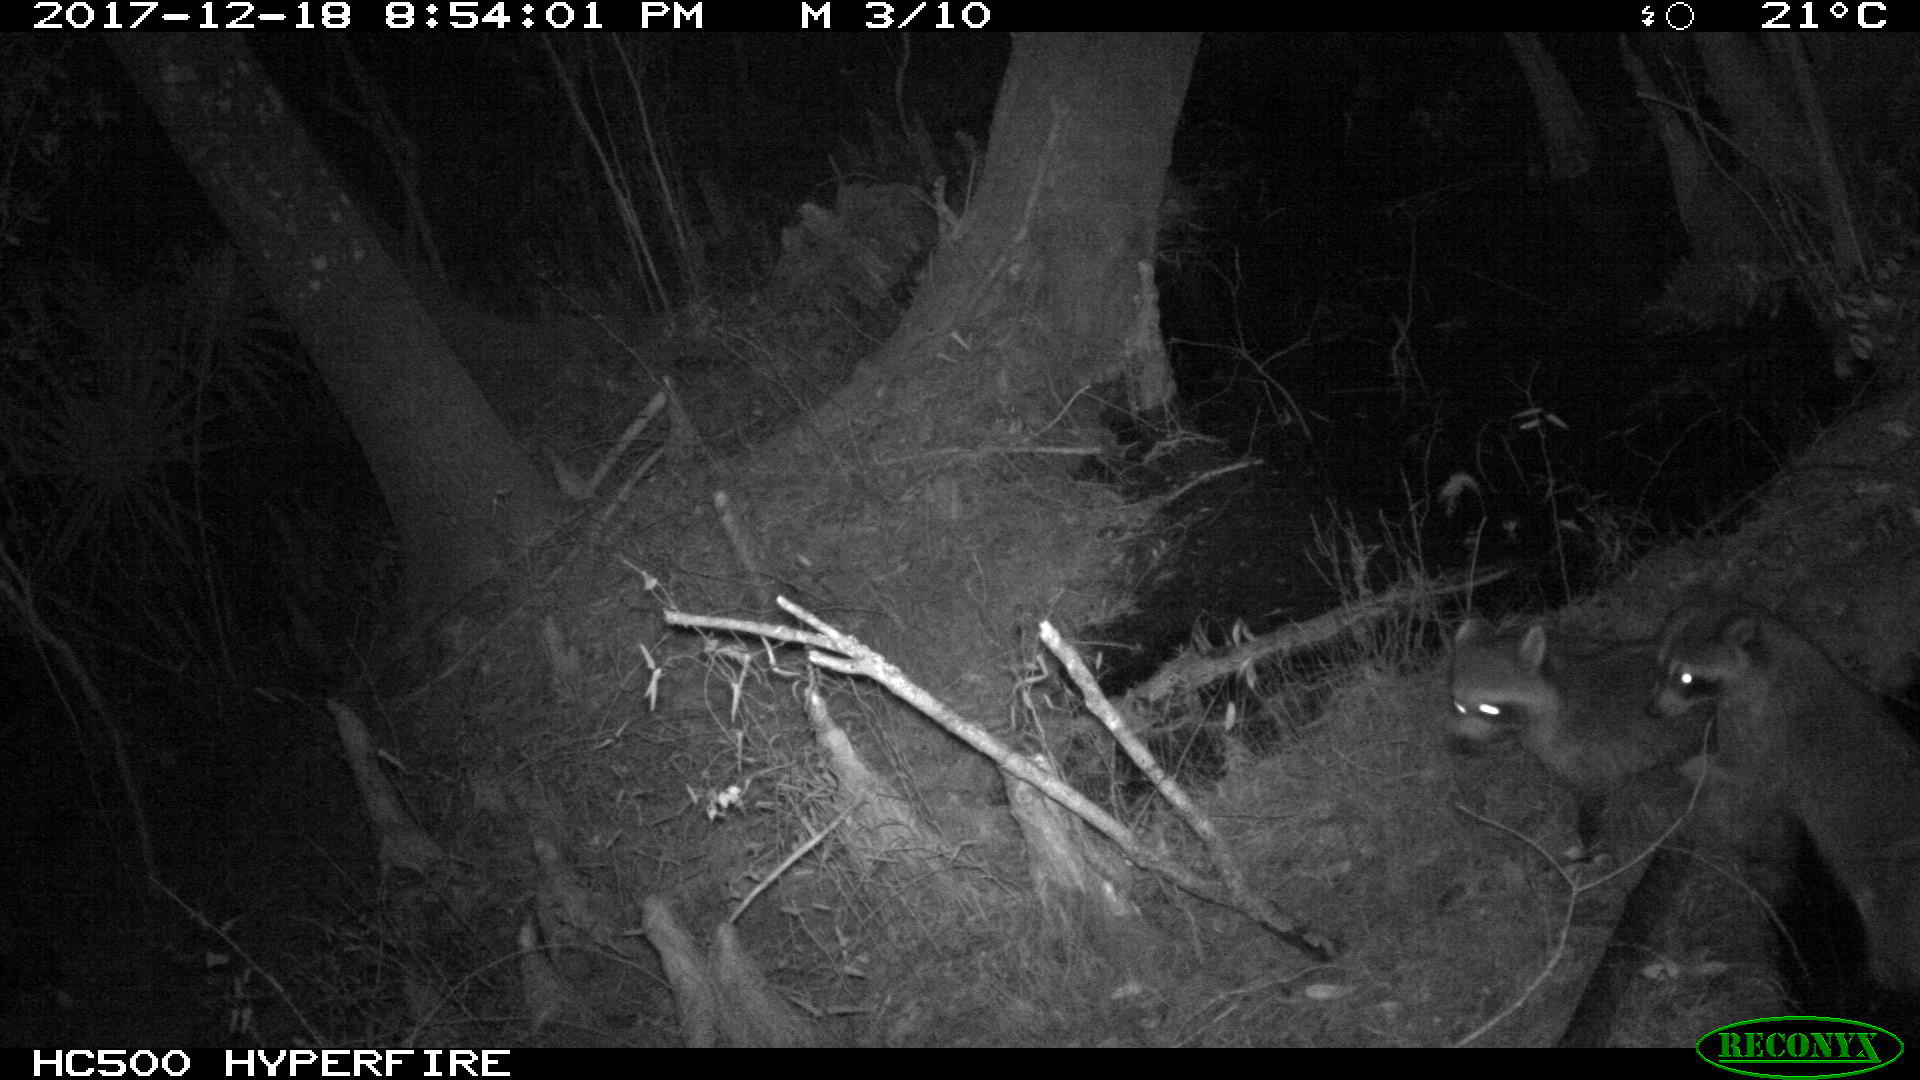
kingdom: Animalia
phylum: Chordata
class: Mammalia
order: Carnivora
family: Procyonidae
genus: Procyon
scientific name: Procyon lotor
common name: Raccoon
